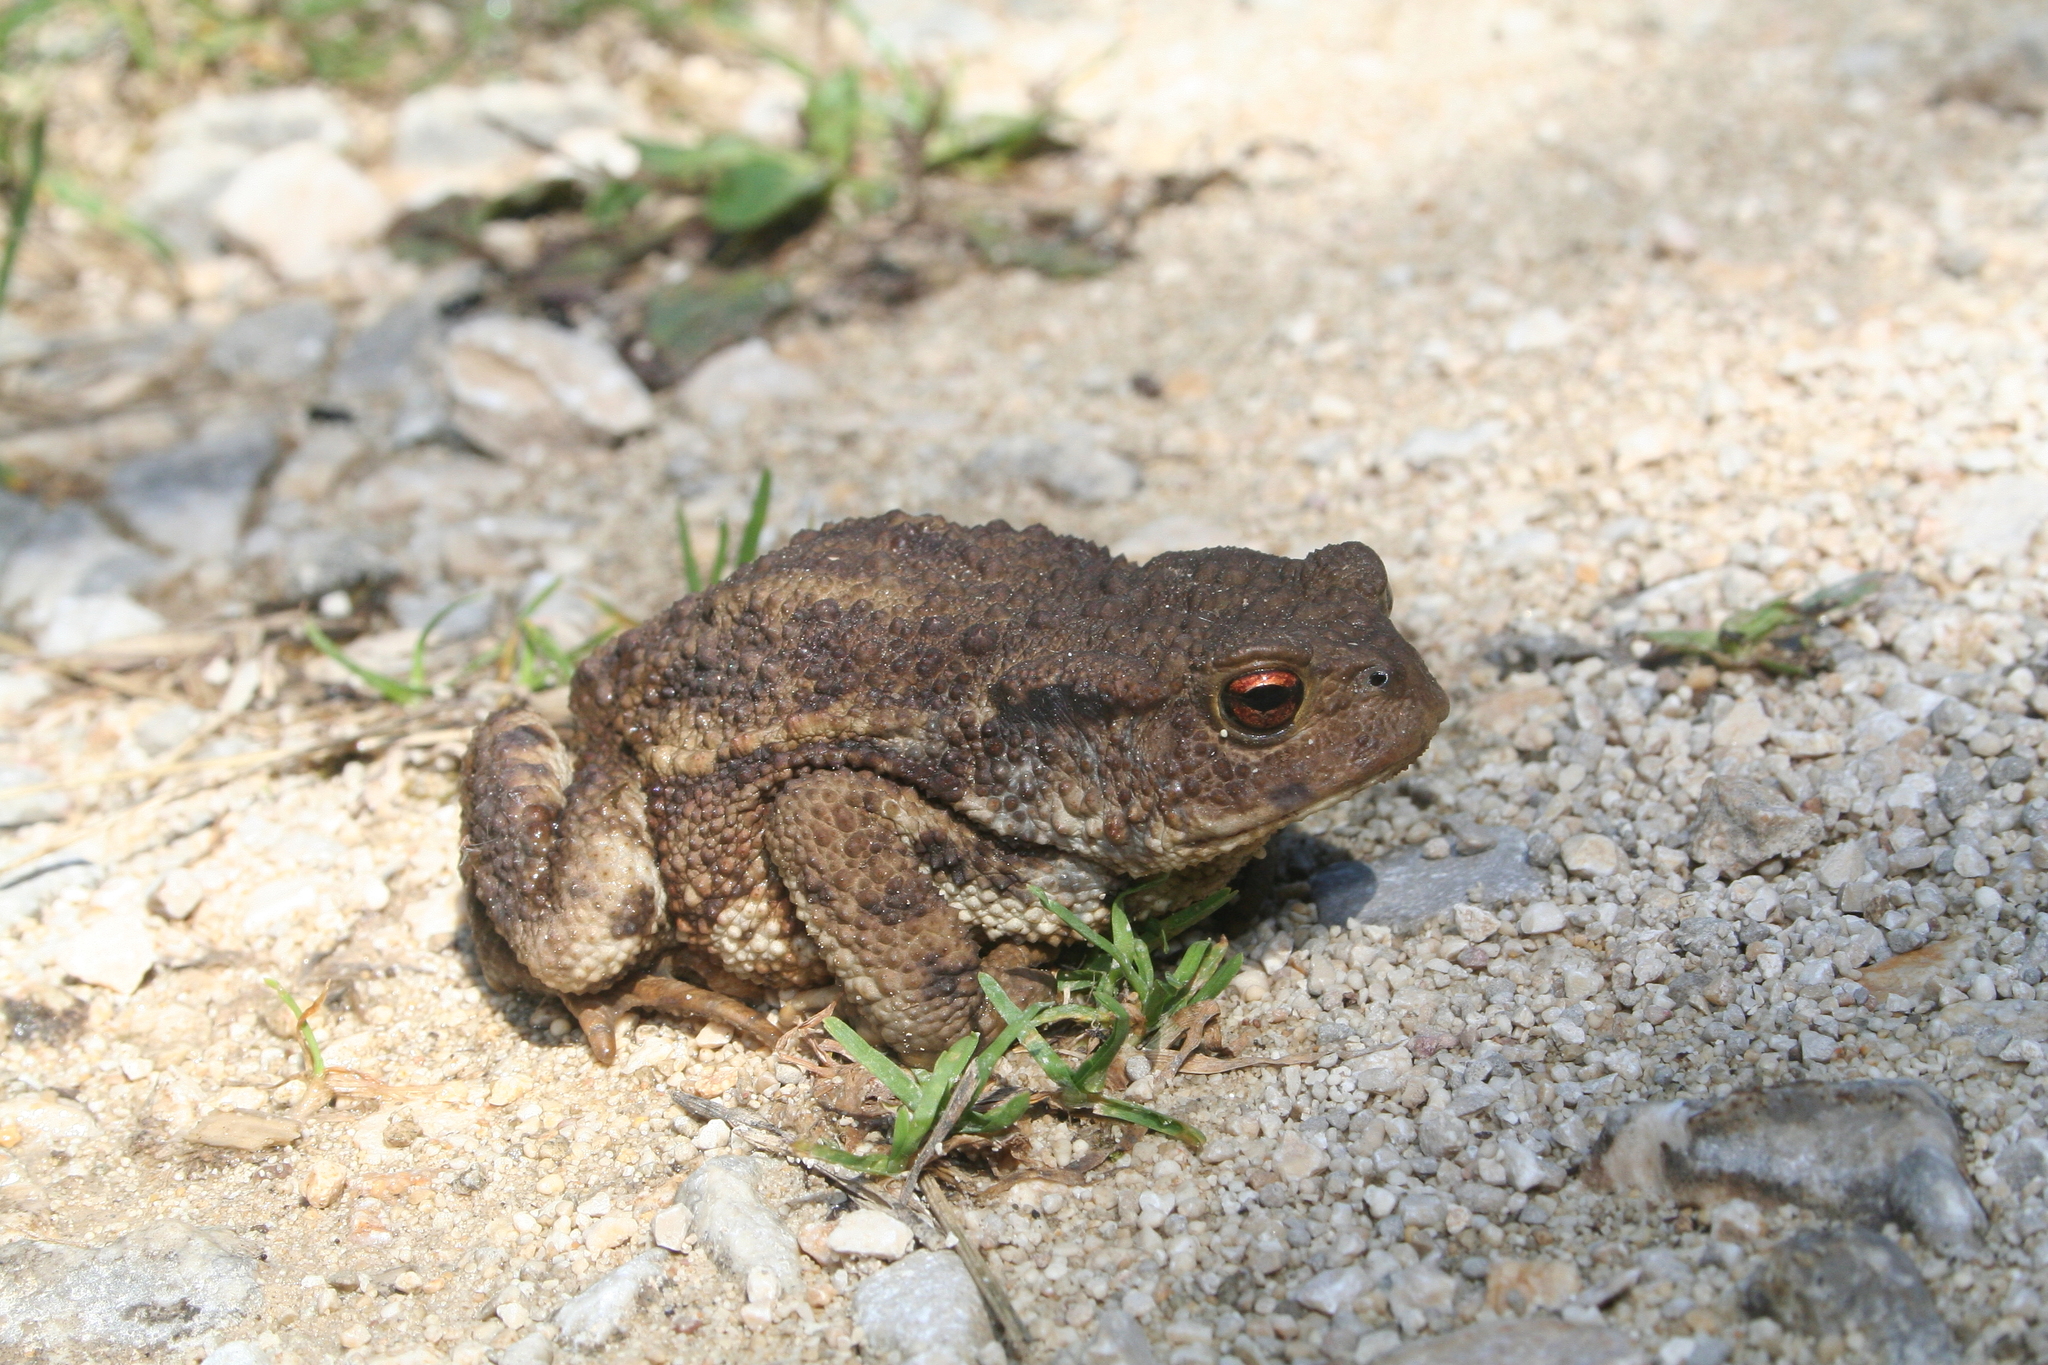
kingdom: Animalia
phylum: Chordata
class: Amphibia
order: Anura
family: Bufonidae
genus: Bufo
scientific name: Bufo bufo
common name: Common toad
